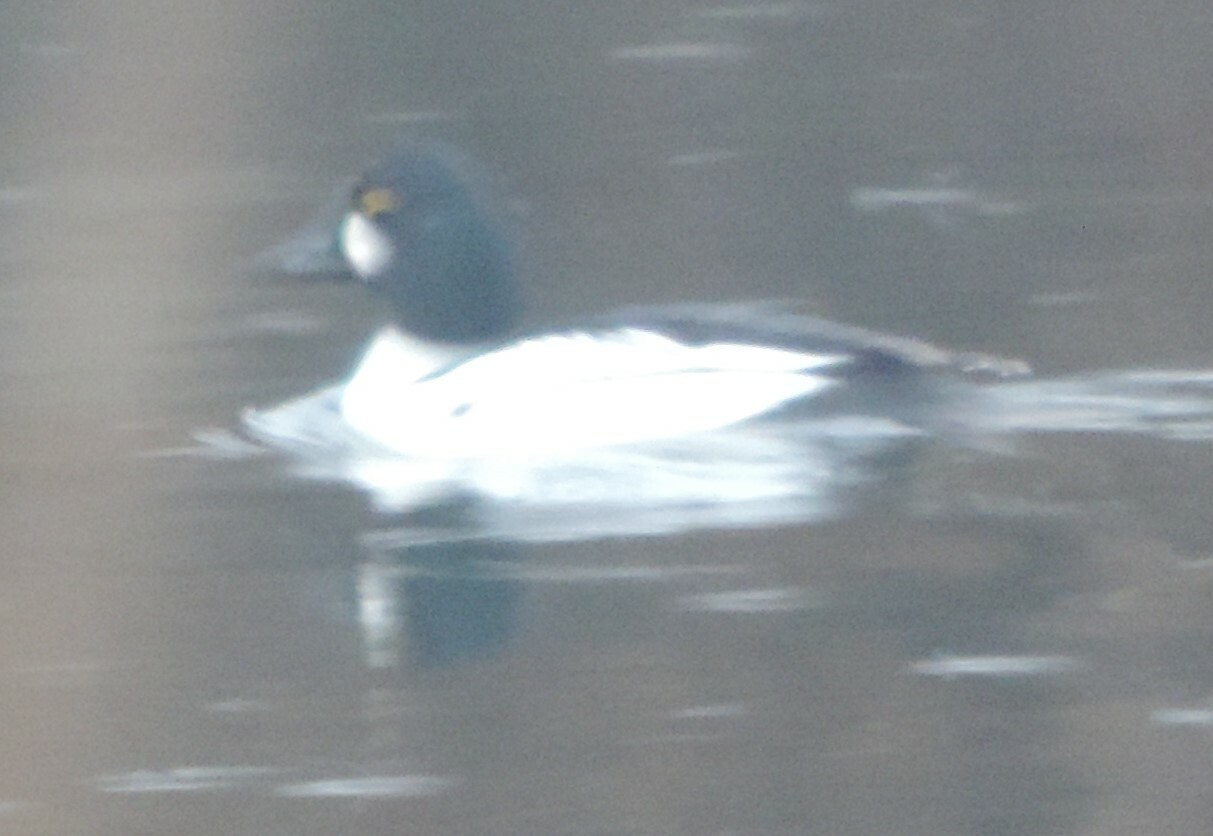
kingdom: Animalia
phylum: Chordata
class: Aves
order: Anseriformes
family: Anatidae
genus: Bucephala
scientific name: Bucephala clangula
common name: Common goldeneye
